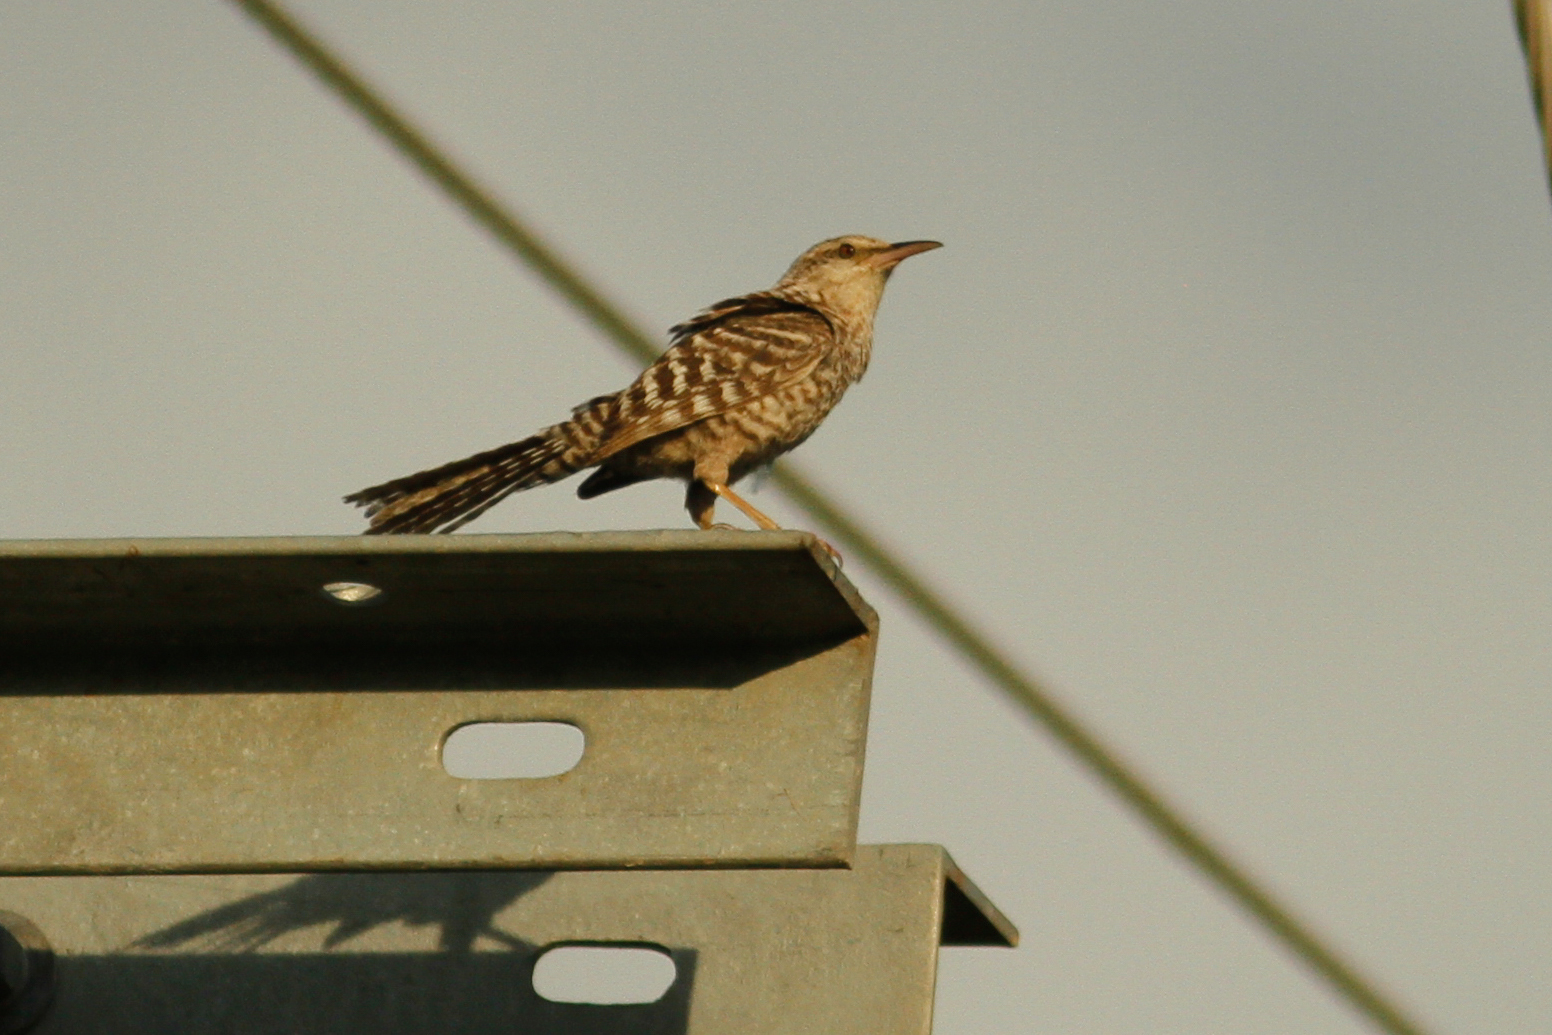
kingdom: Animalia
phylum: Chordata
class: Aves
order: Passeriformes
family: Troglodytidae
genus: Campylorhynchus
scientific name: Campylorhynchus fasciatus
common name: Fasciated wren
